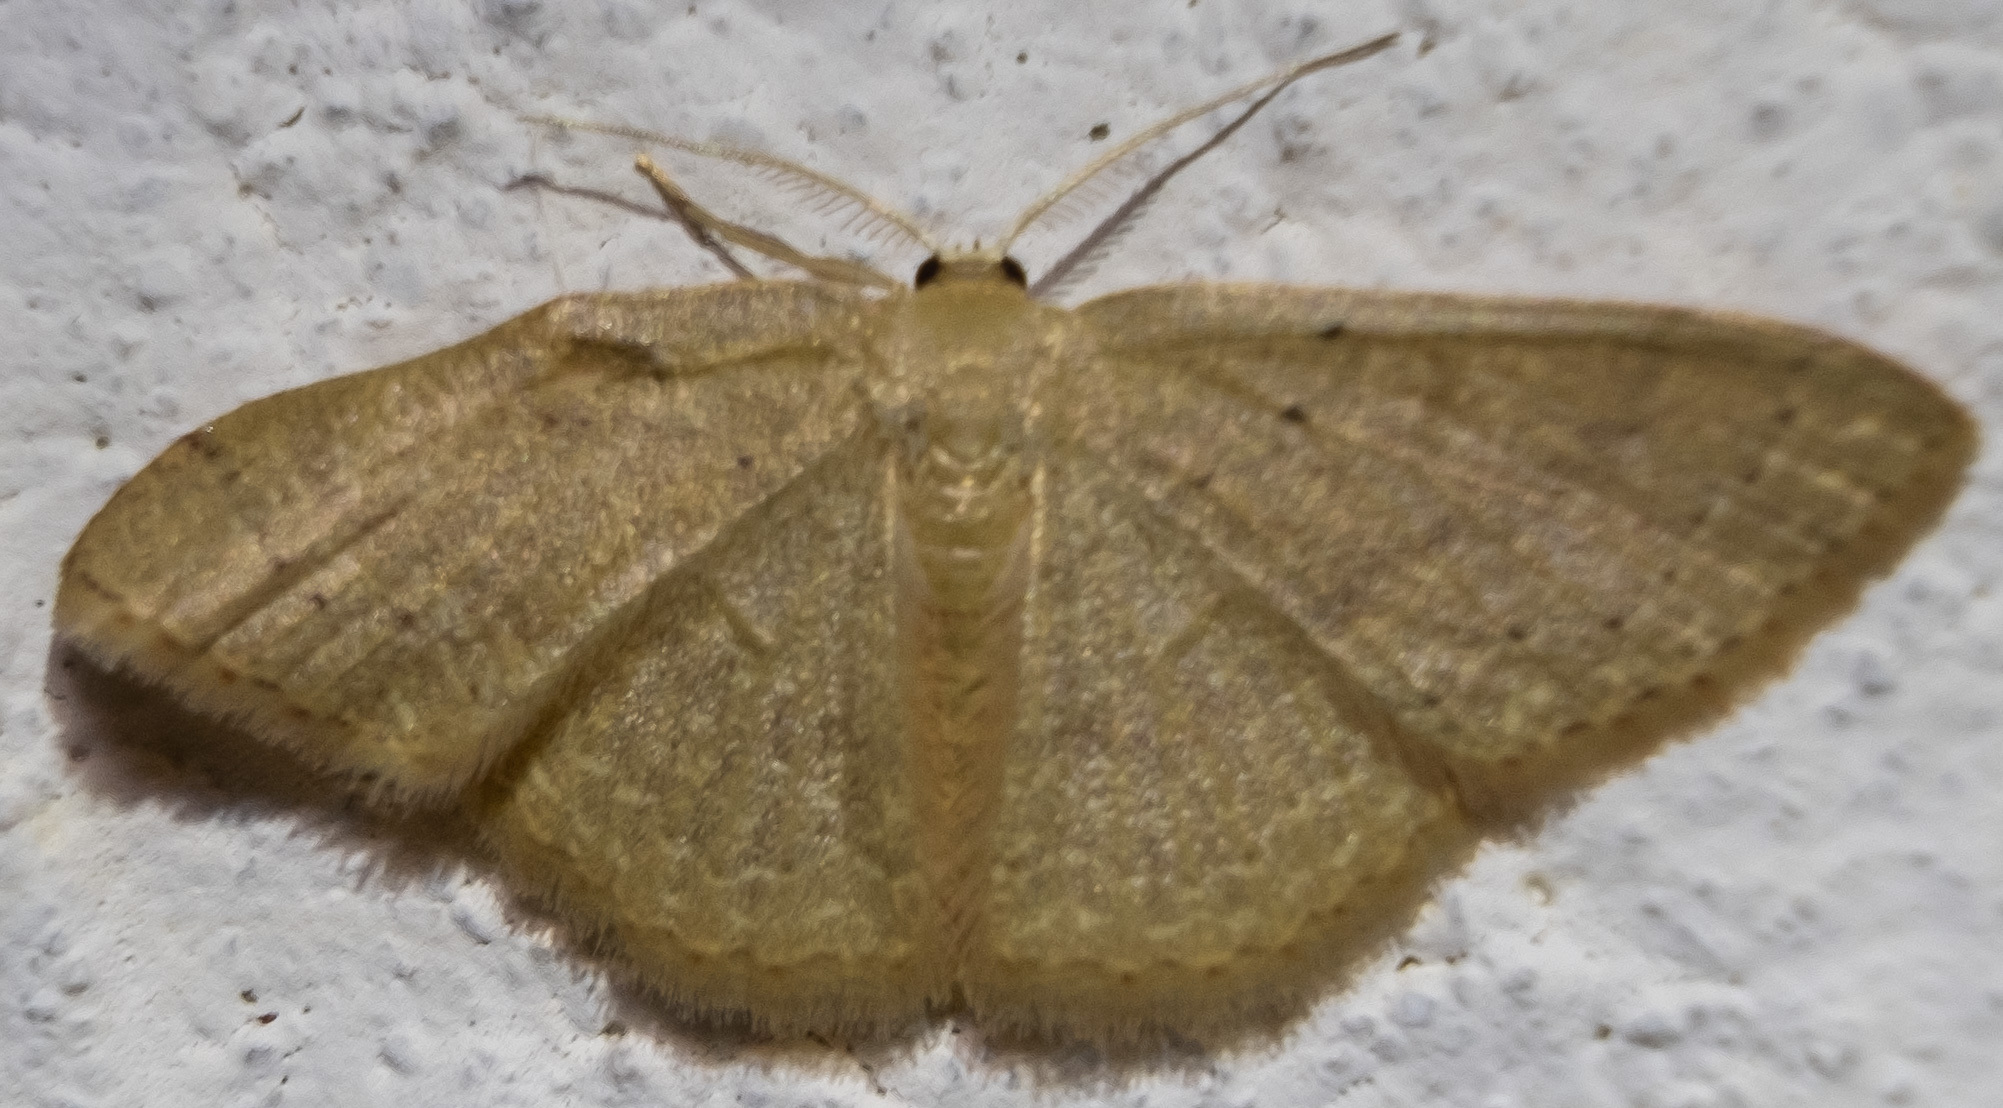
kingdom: Animalia
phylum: Arthropoda
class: Insecta
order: Lepidoptera
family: Geometridae
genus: Pleuroprucha
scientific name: Pleuroprucha insulsaria
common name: Common tan wave
